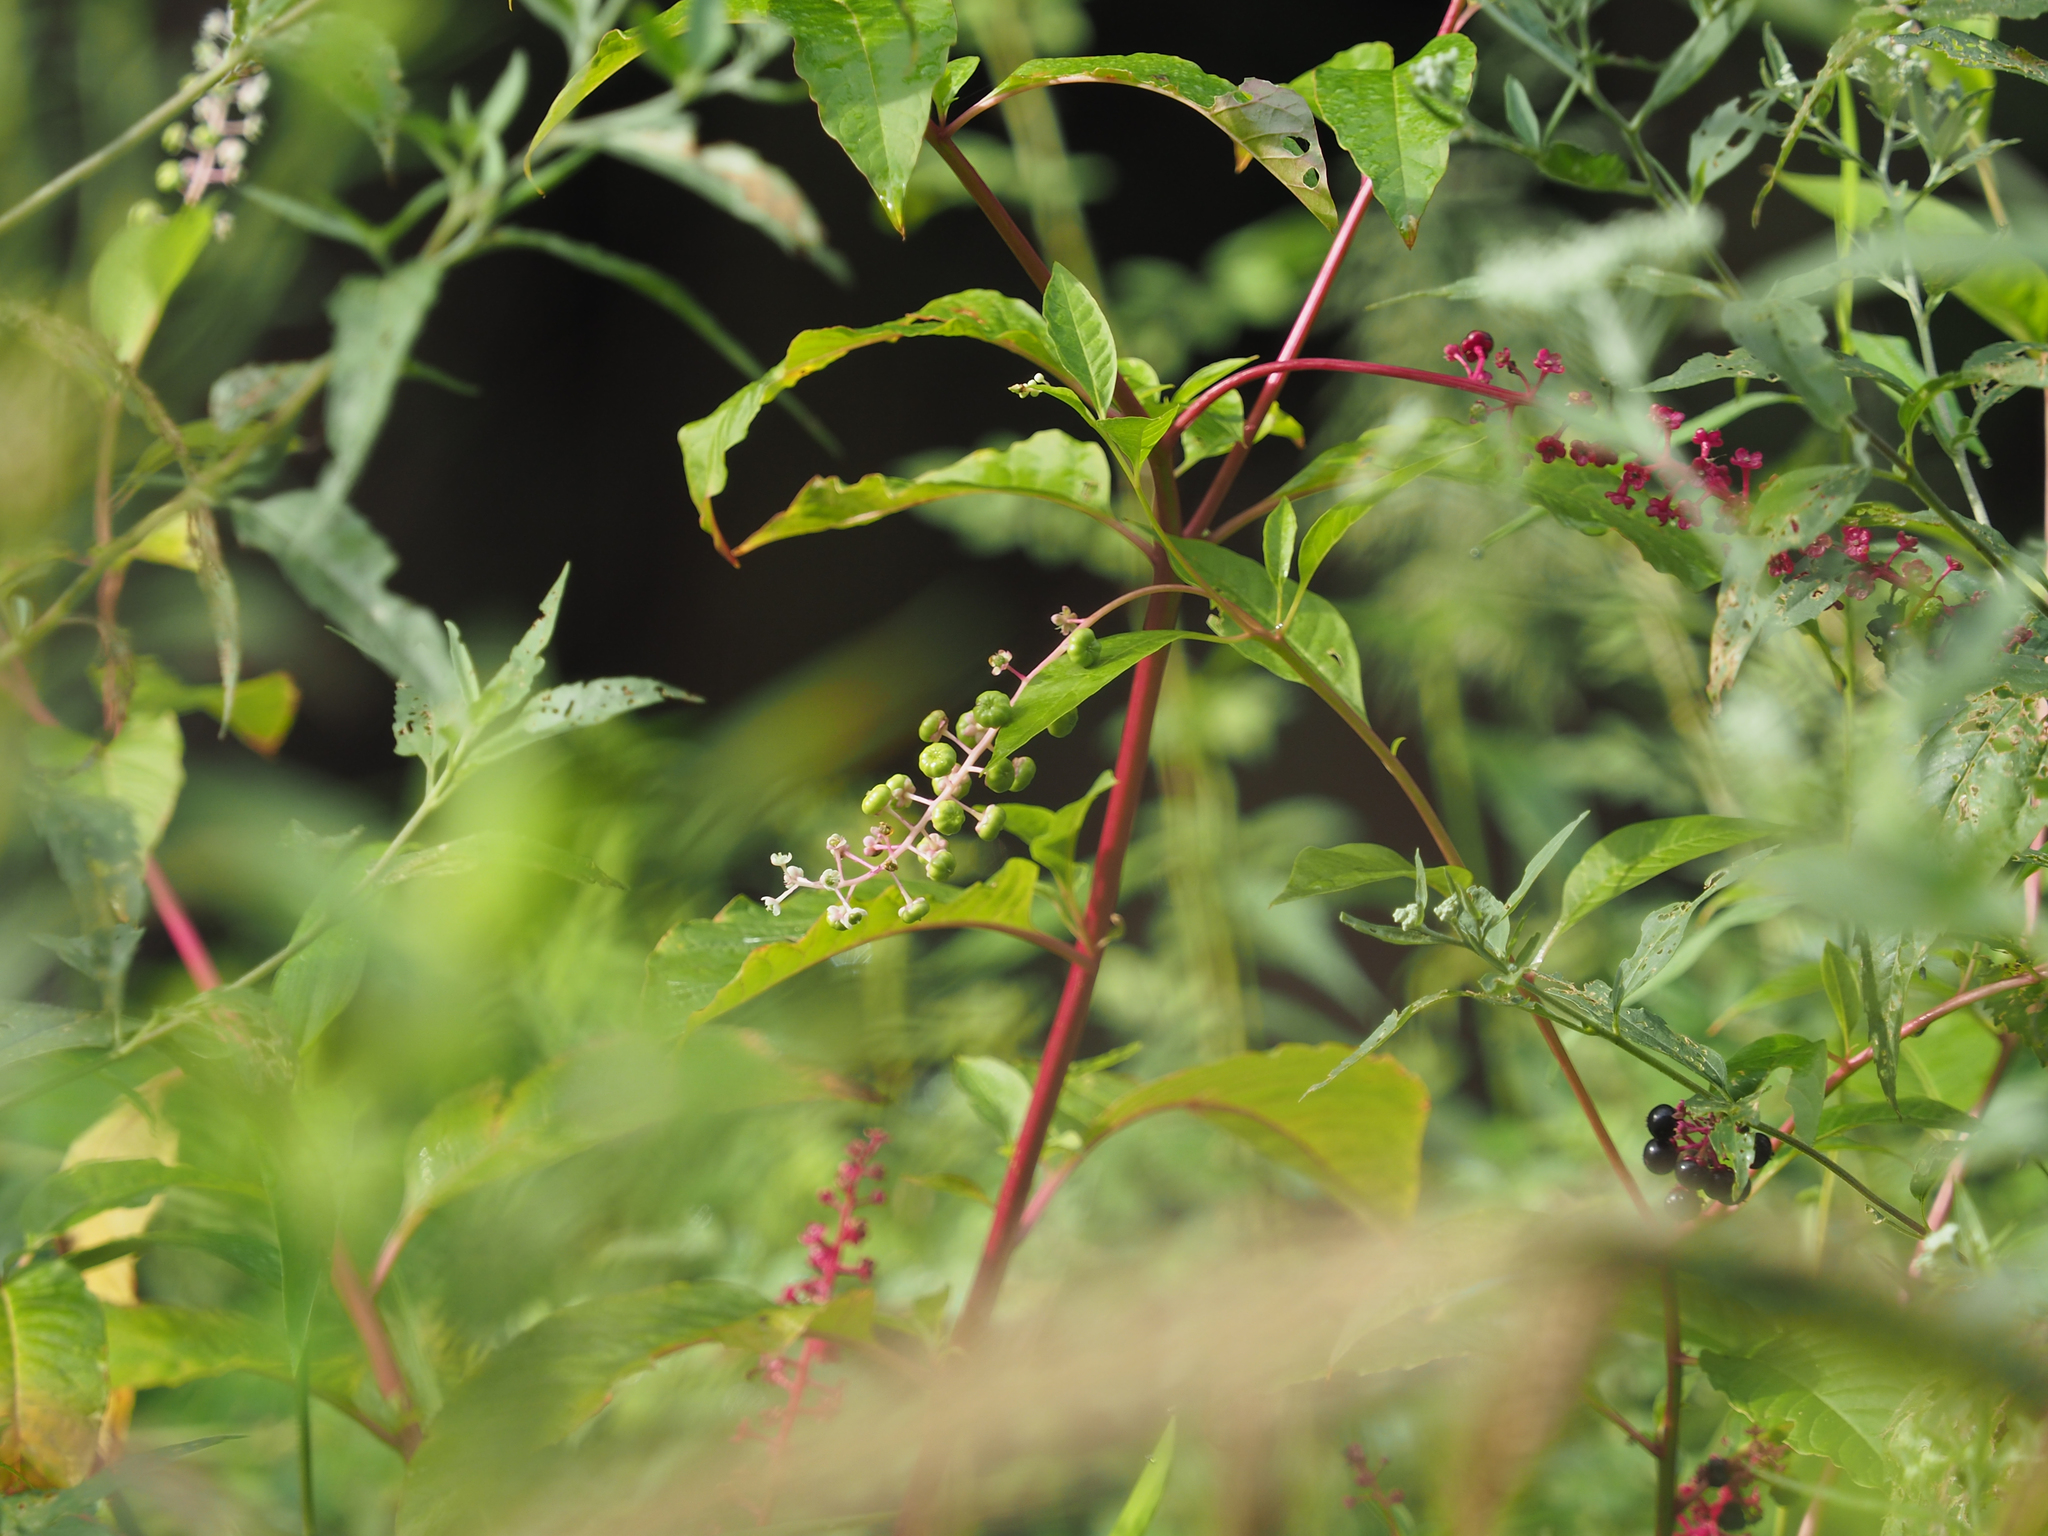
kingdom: Plantae
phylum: Tracheophyta
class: Magnoliopsida
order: Caryophyllales
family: Phytolaccaceae
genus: Phytolacca
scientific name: Phytolacca americana
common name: American pokeweed
